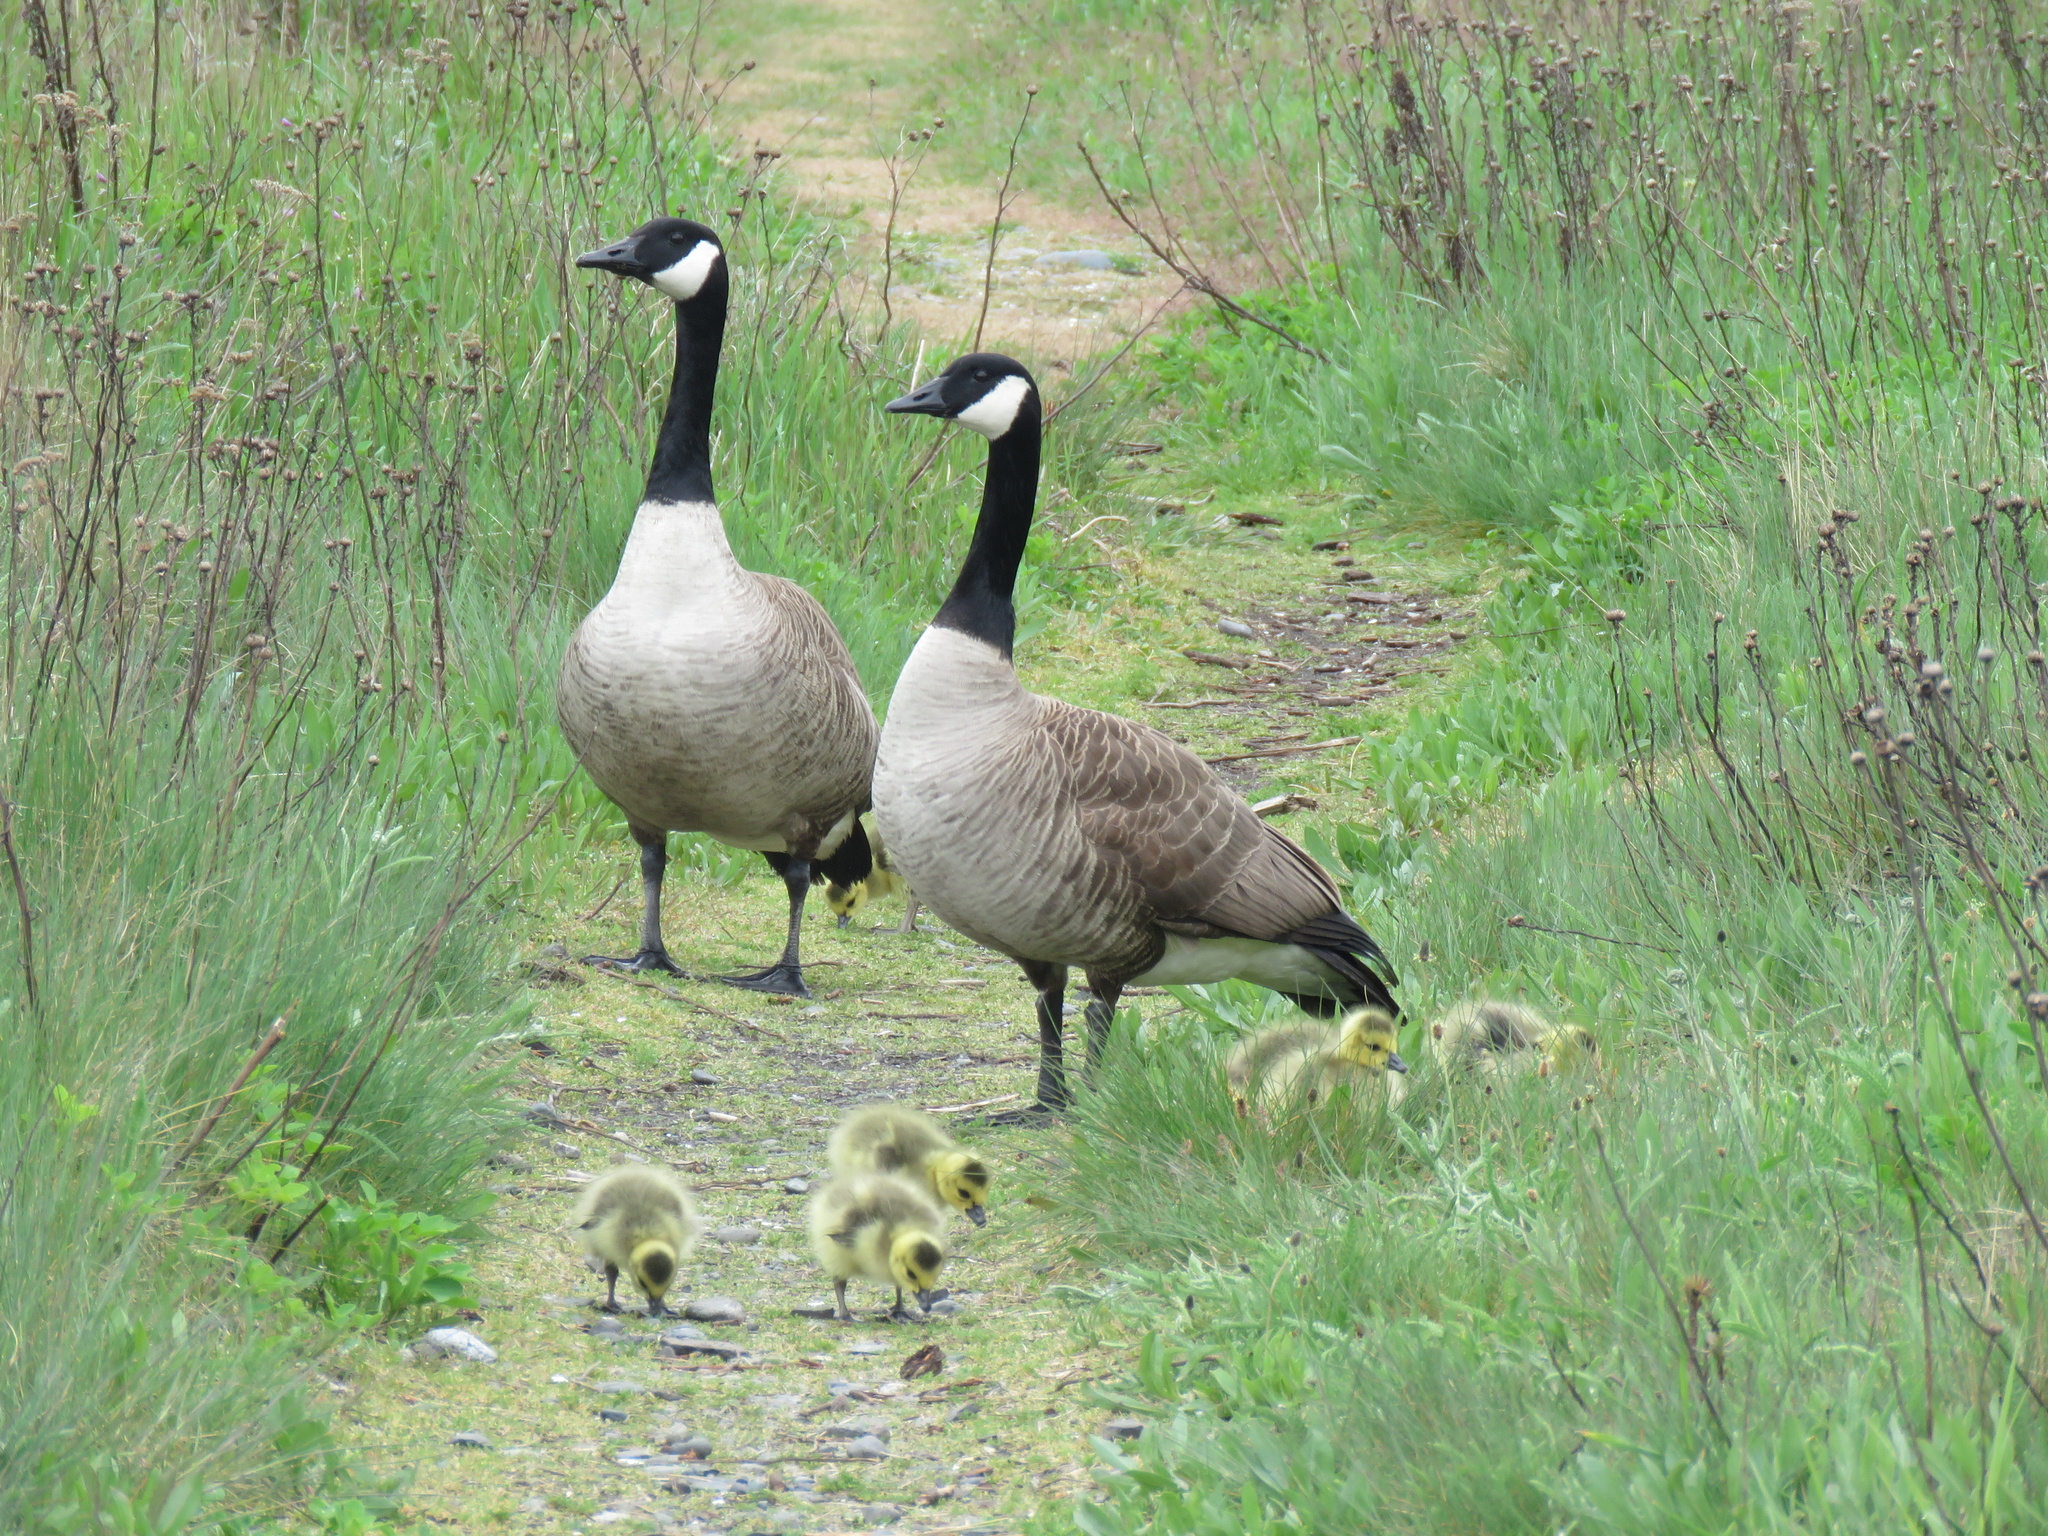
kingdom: Animalia
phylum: Chordata
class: Aves
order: Anseriformes
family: Anatidae
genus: Branta
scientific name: Branta canadensis
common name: Canada goose
